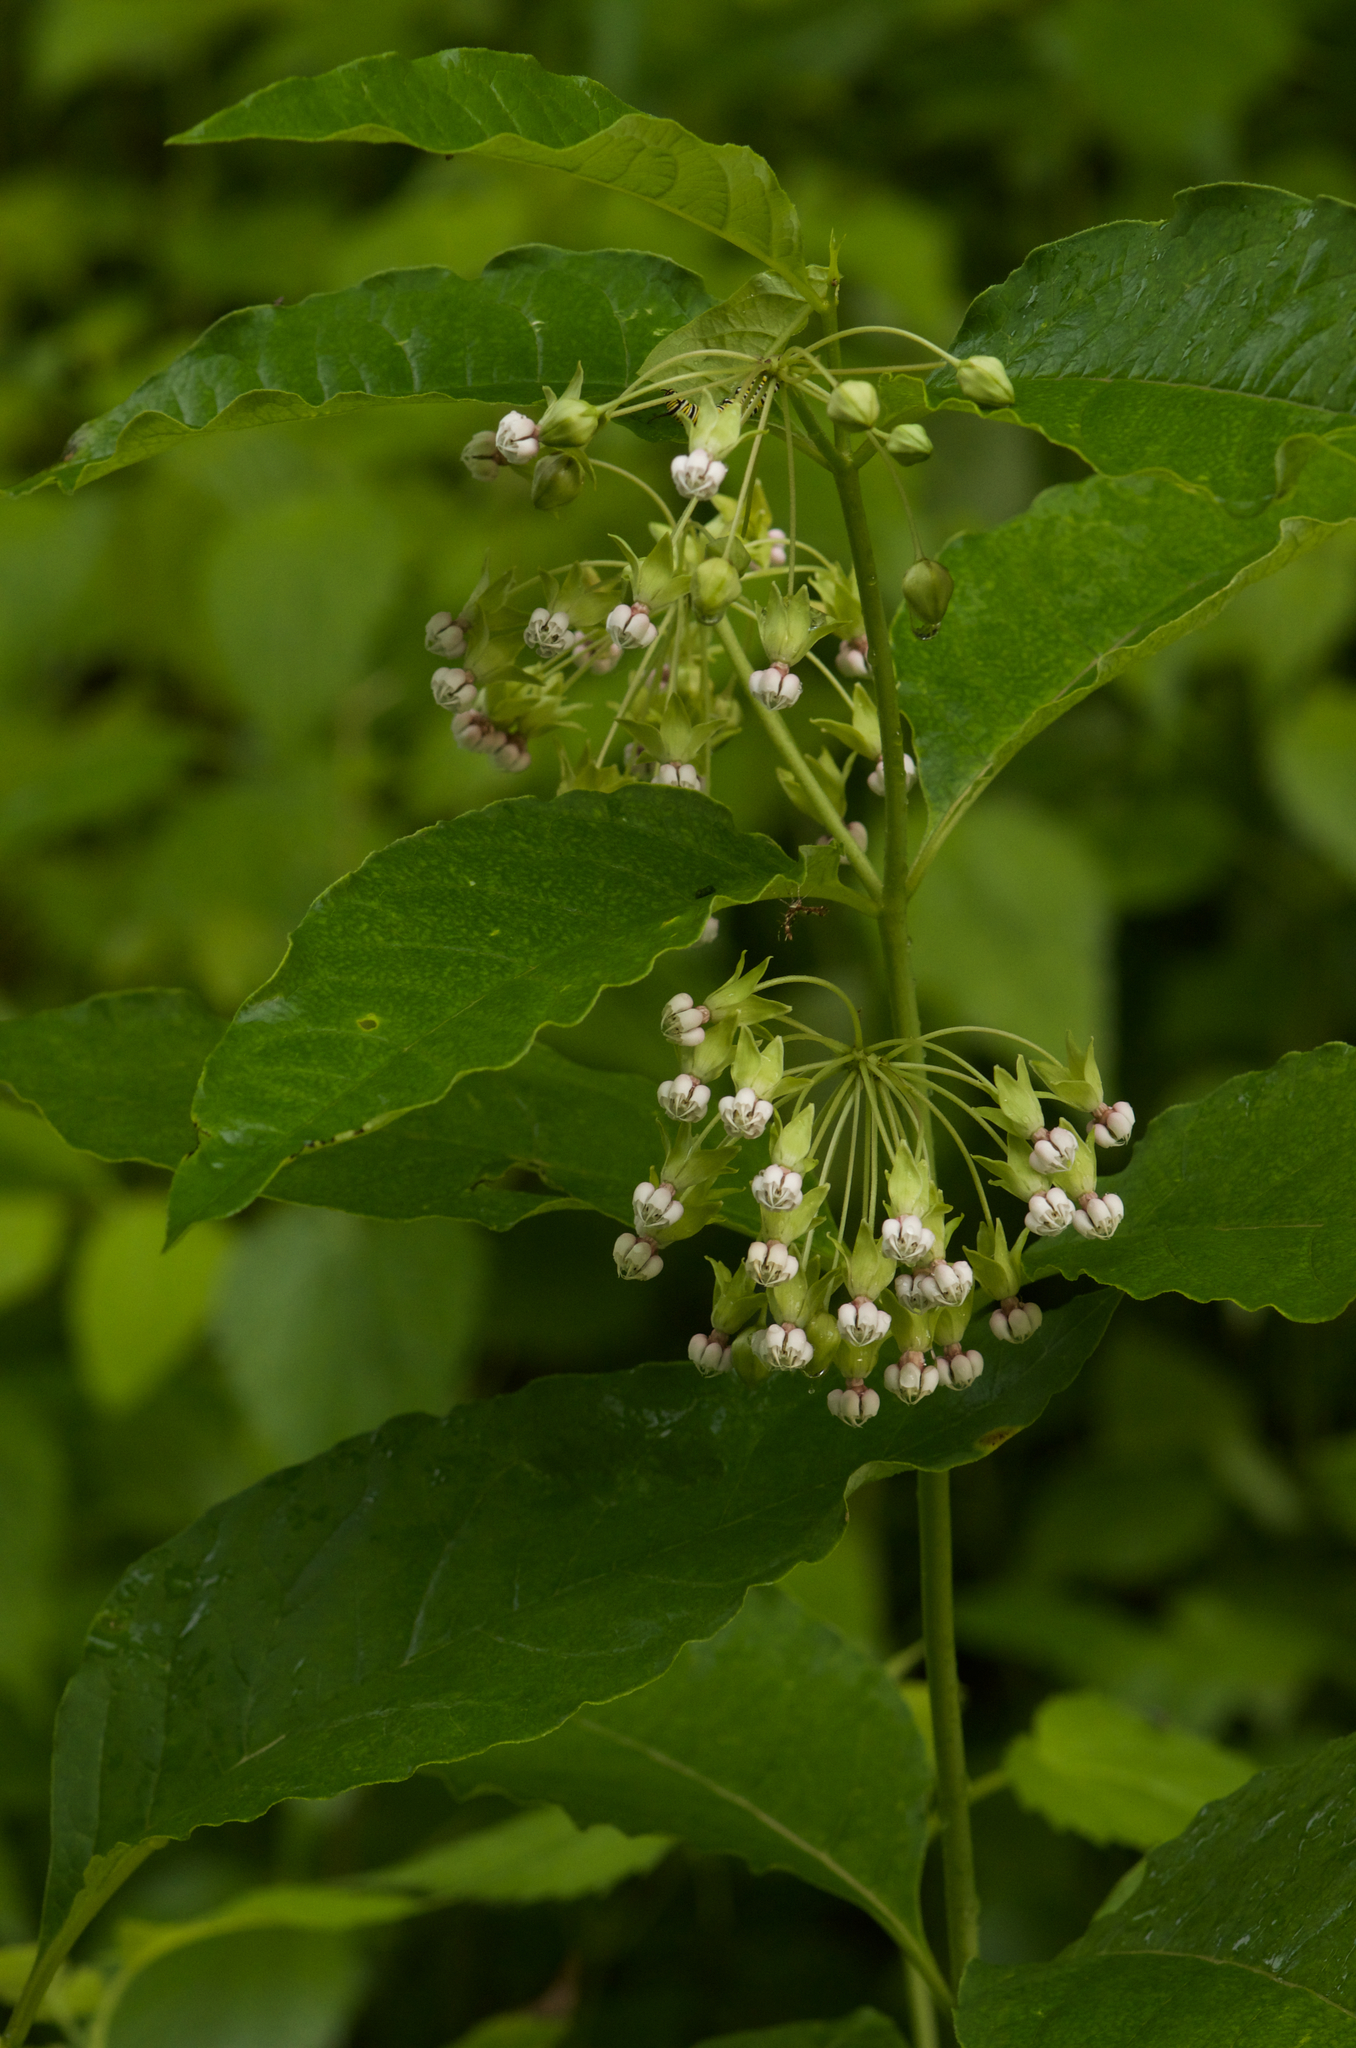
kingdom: Plantae
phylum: Tracheophyta
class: Magnoliopsida
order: Gentianales
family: Apocynaceae
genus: Asclepias
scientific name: Asclepias exaltata
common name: Poke milkweed
